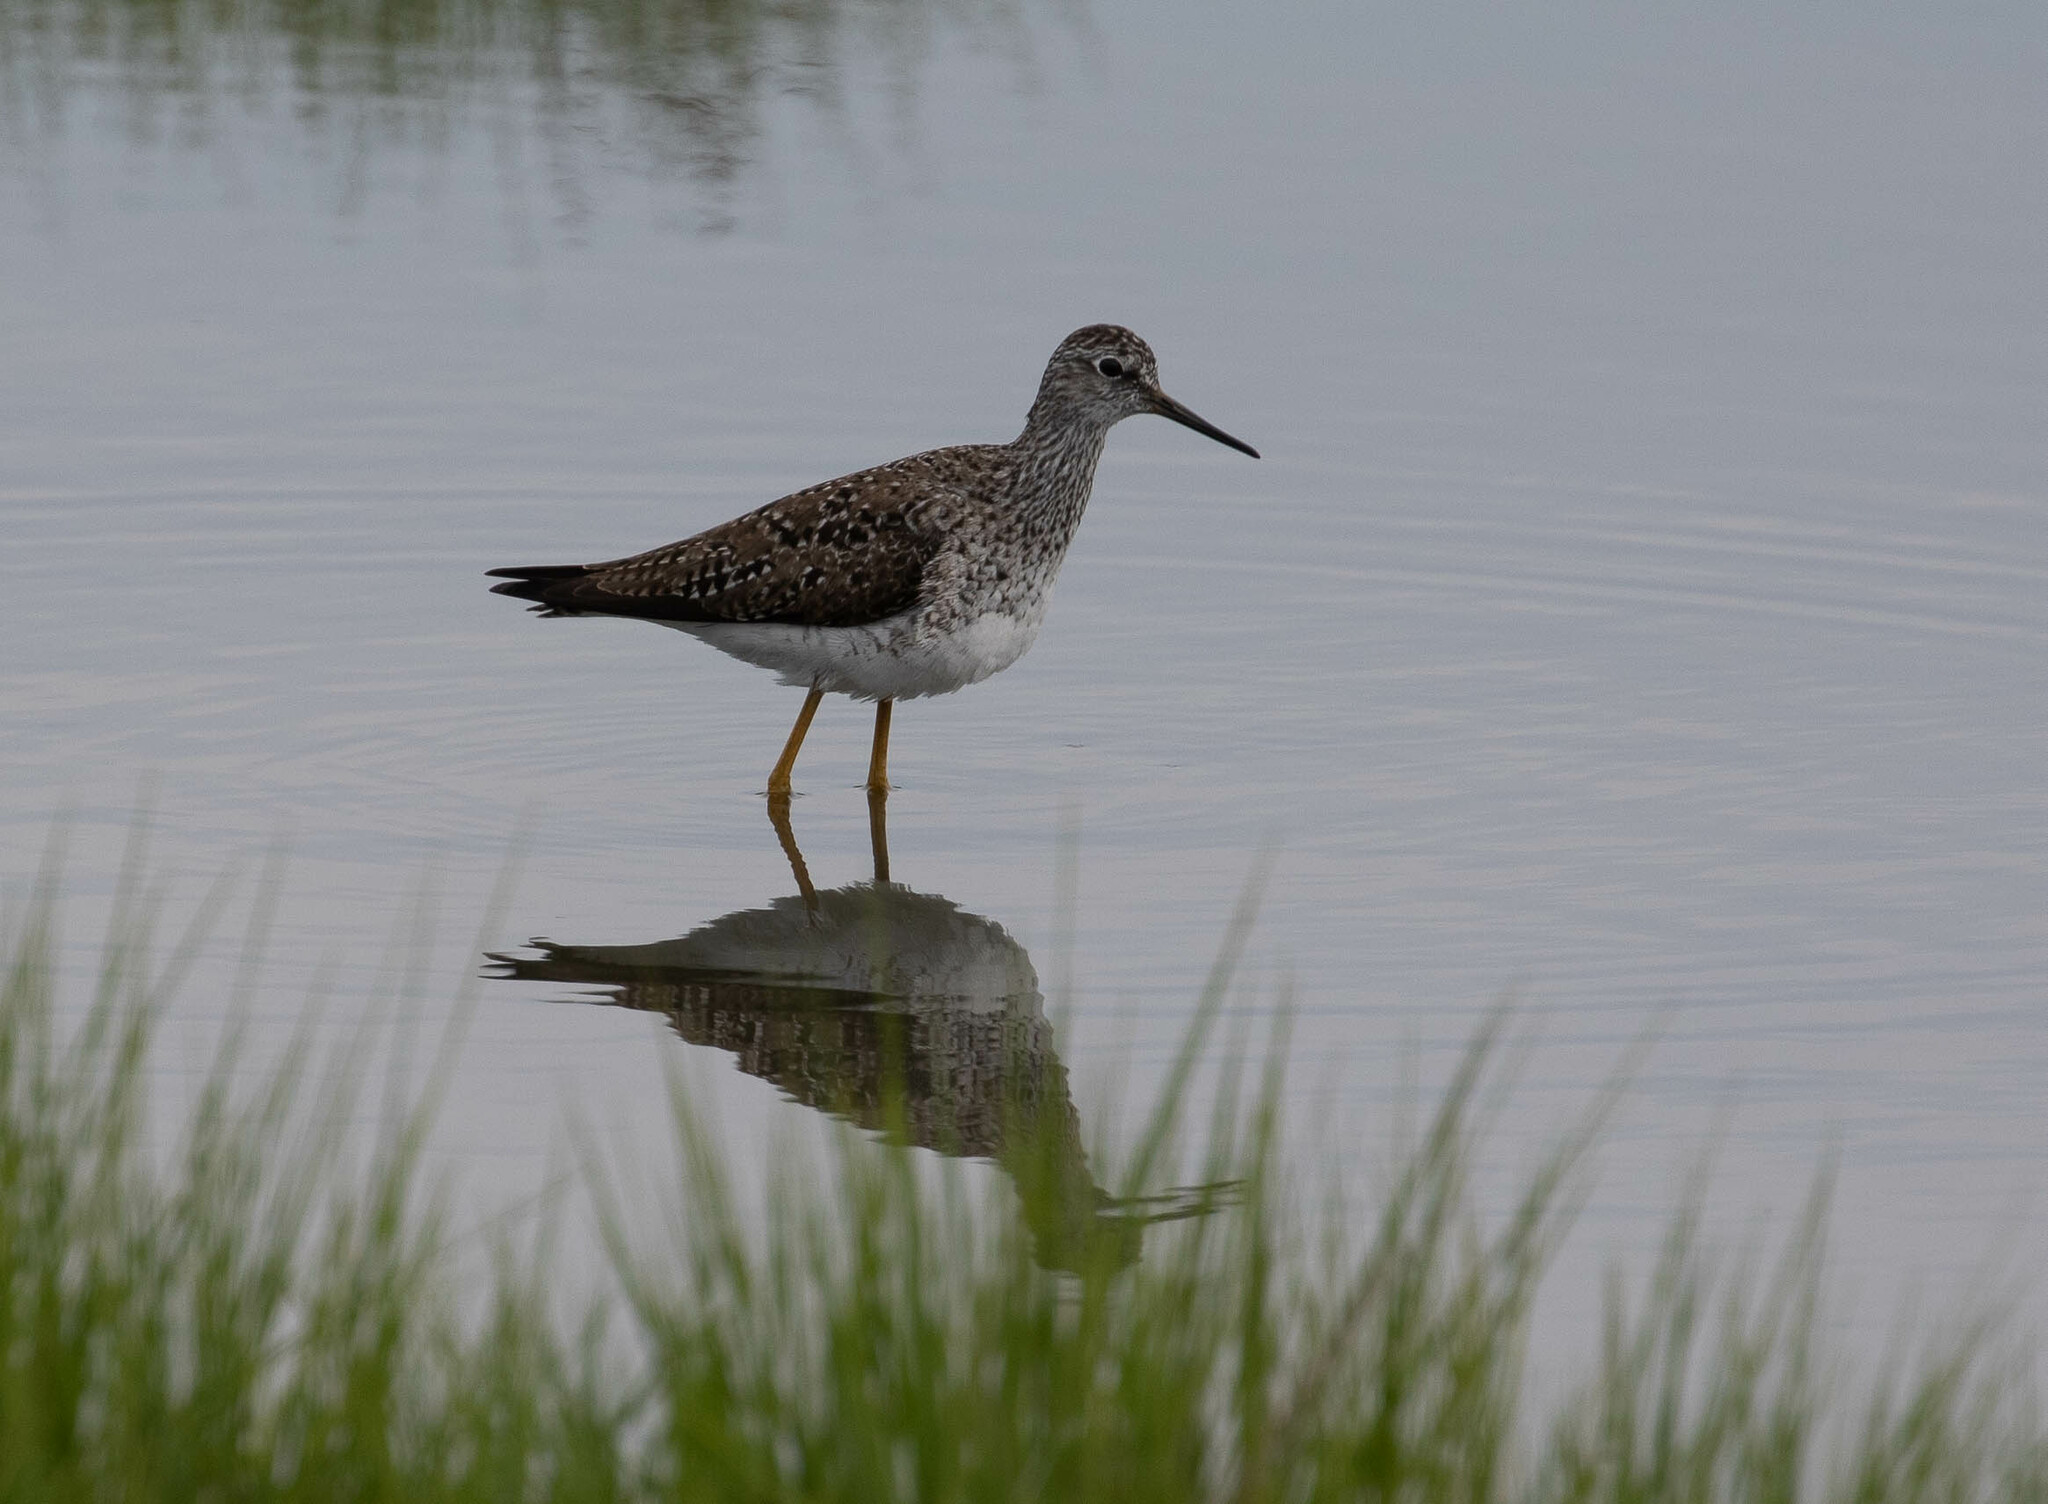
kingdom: Animalia
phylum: Chordata
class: Aves
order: Charadriiformes
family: Scolopacidae
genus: Tringa
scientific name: Tringa flavipes
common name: Lesser yellowlegs
